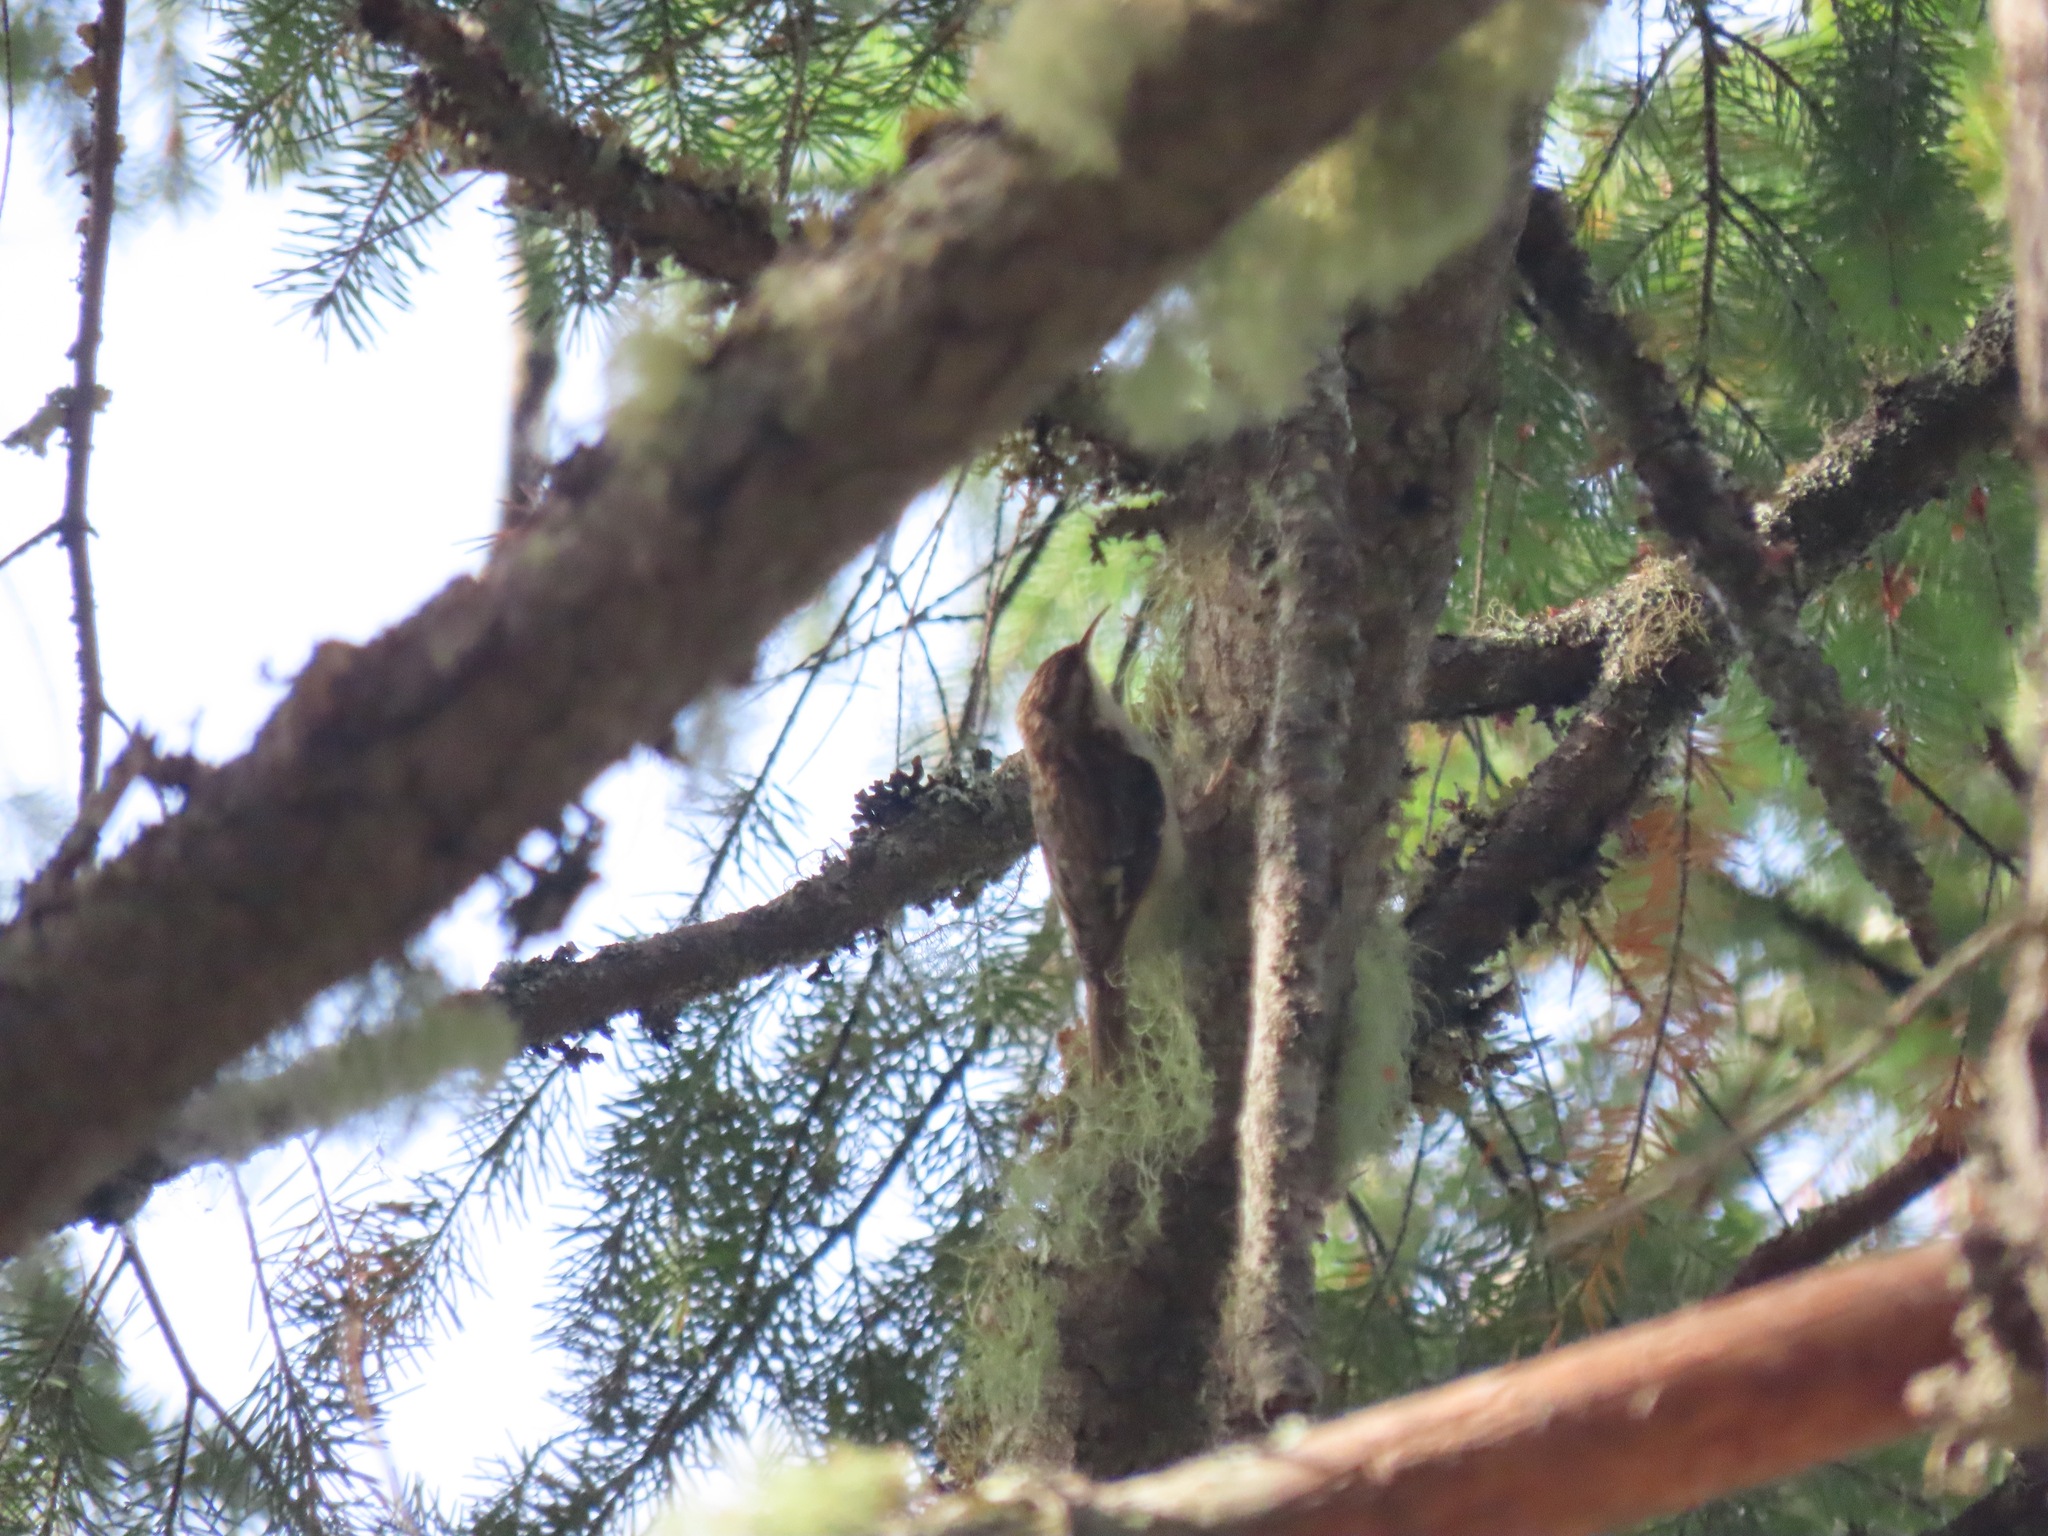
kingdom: Animalia
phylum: Chordata
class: Aves
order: Passeriformes
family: Certhiidae
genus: Certhia
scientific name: Certhia americana
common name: Brown creeper
